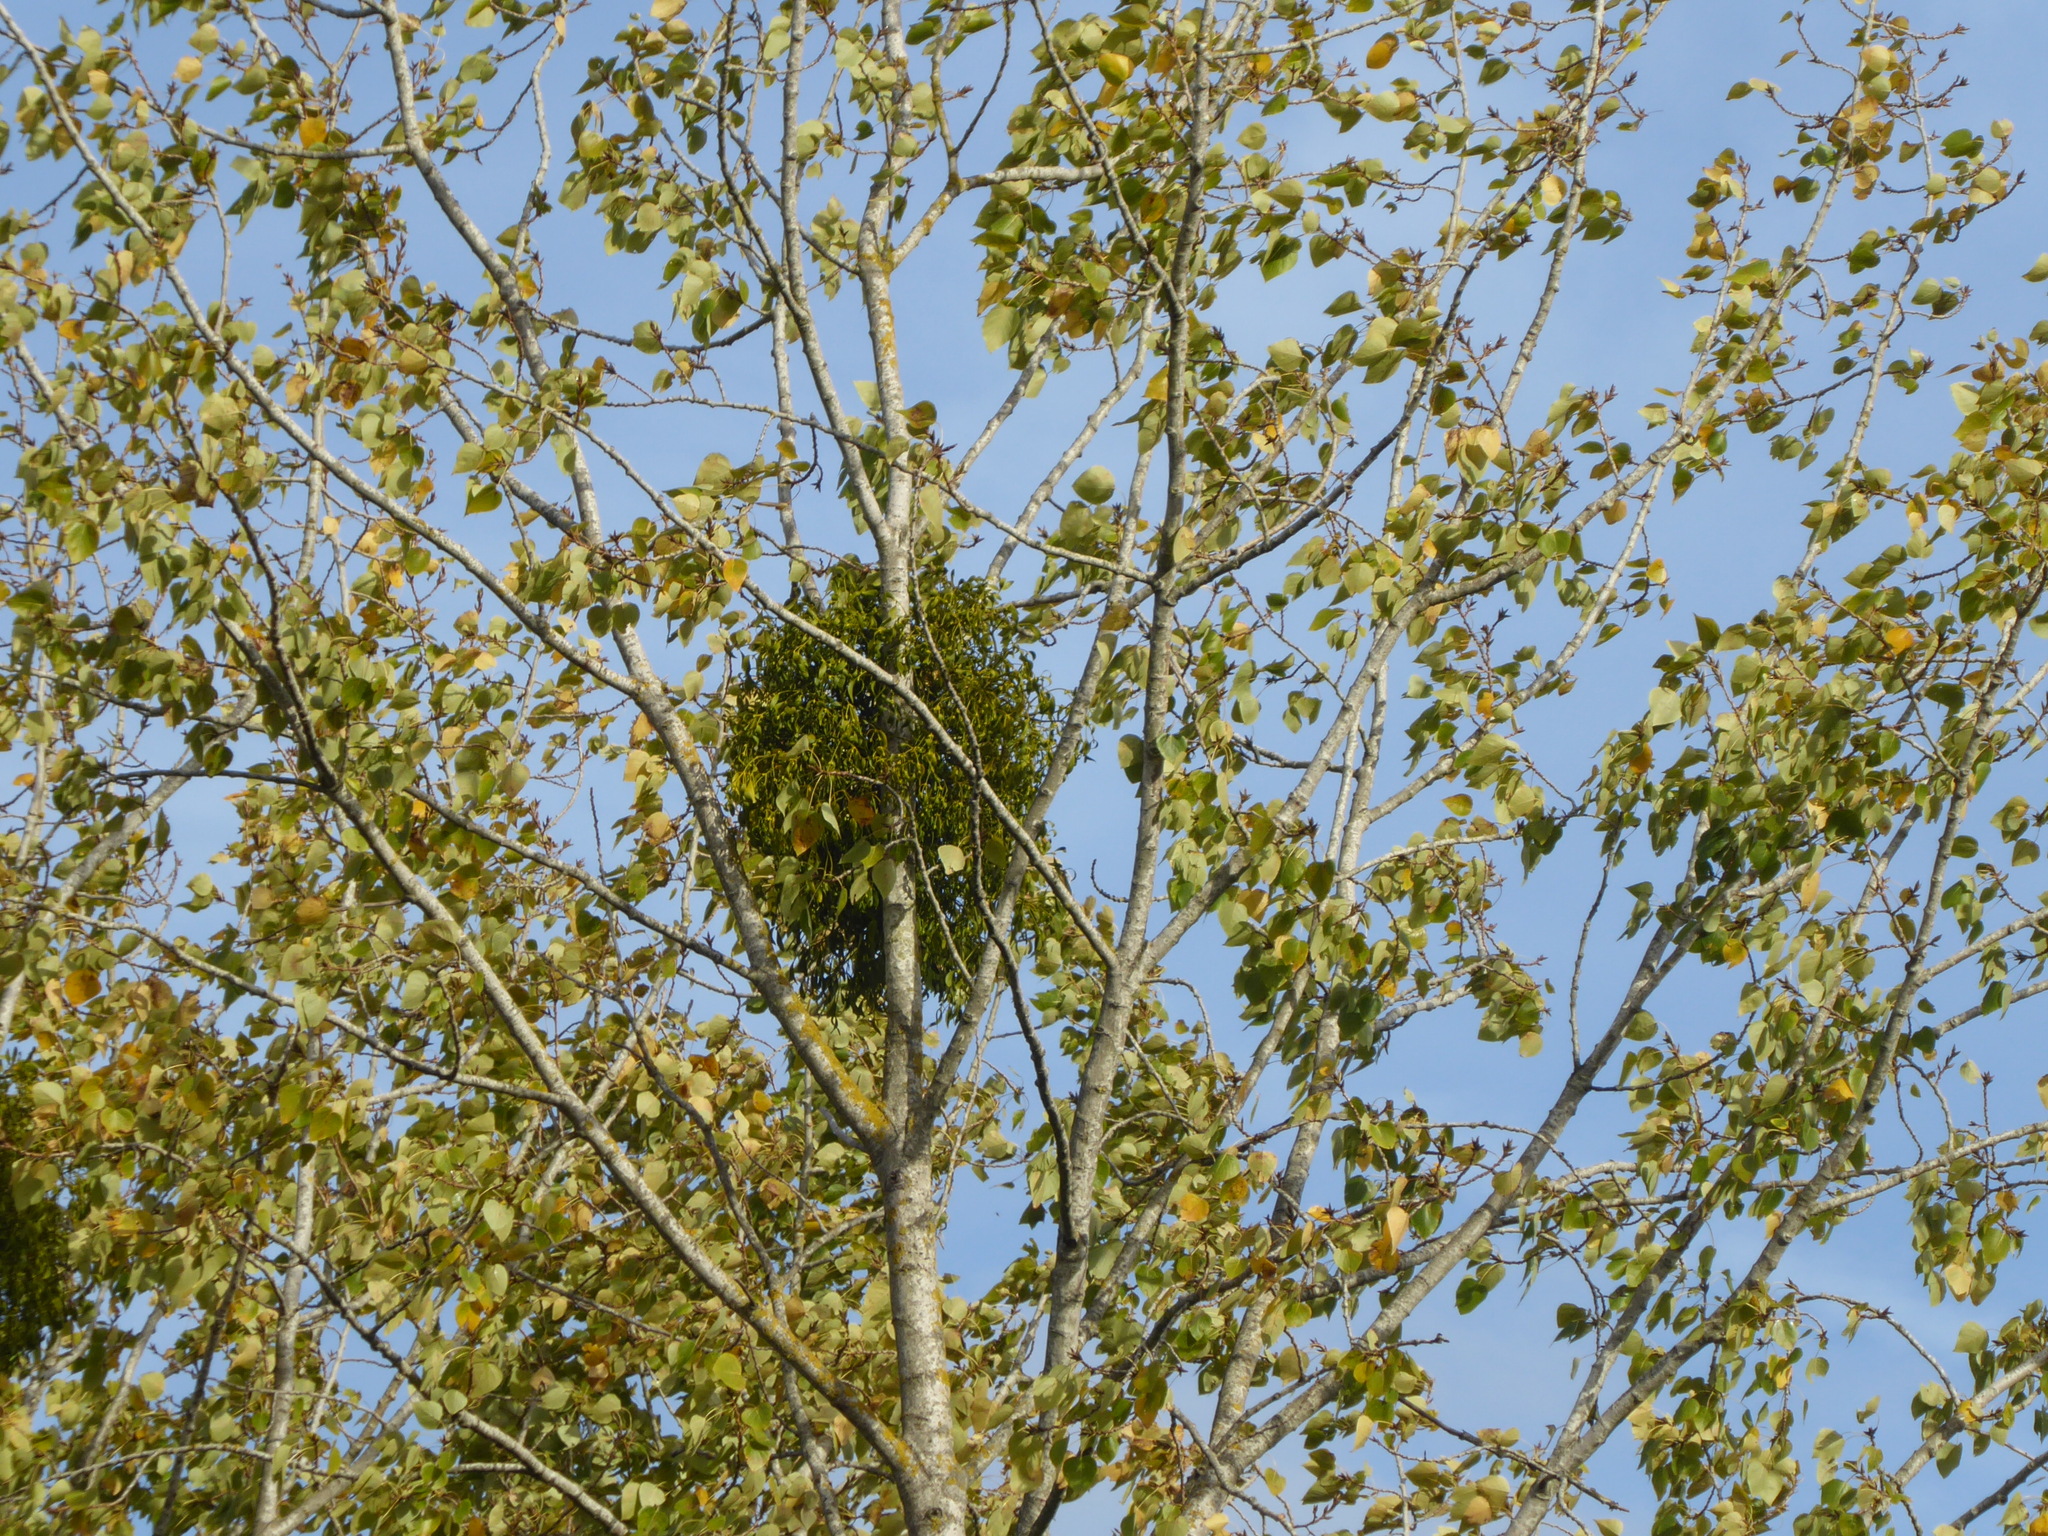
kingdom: Plantae
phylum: Tracheophyta
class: Magnoliopsida
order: Santalales
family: Viscaceae
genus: Viscum
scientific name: Viscum album
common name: Mistletoe
